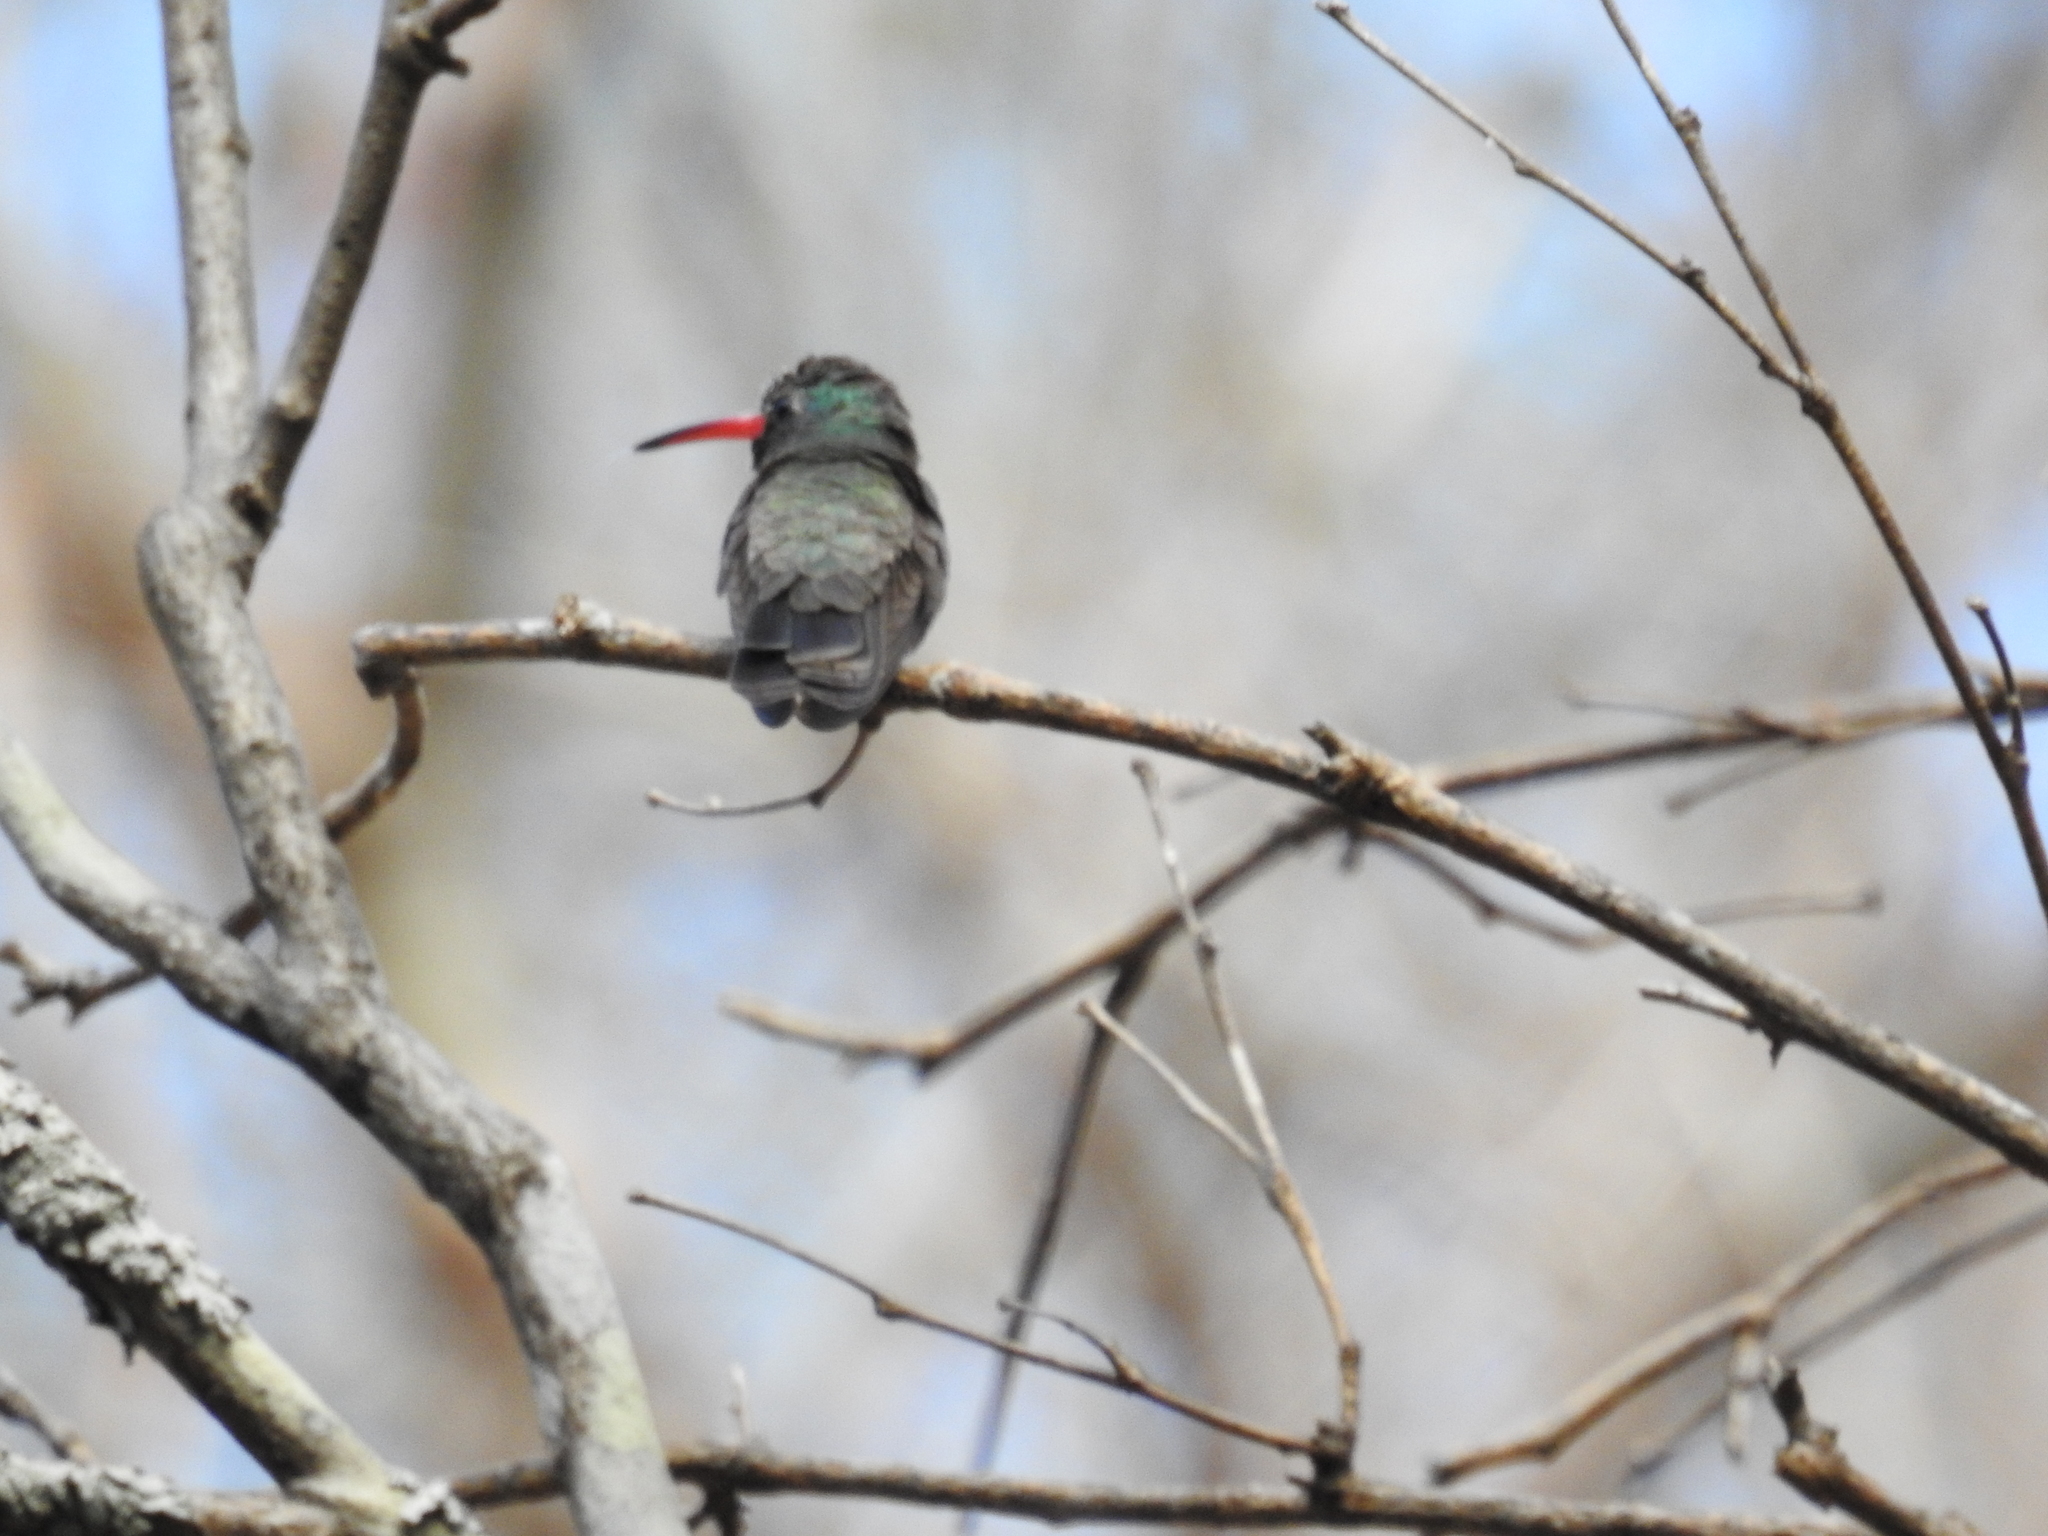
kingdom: Animalia
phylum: Chordata
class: Aves
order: Apodiformes
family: Trochilidae
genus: Cynanthus
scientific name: Cynanthus latirostris
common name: Broad-billed hummingbird
